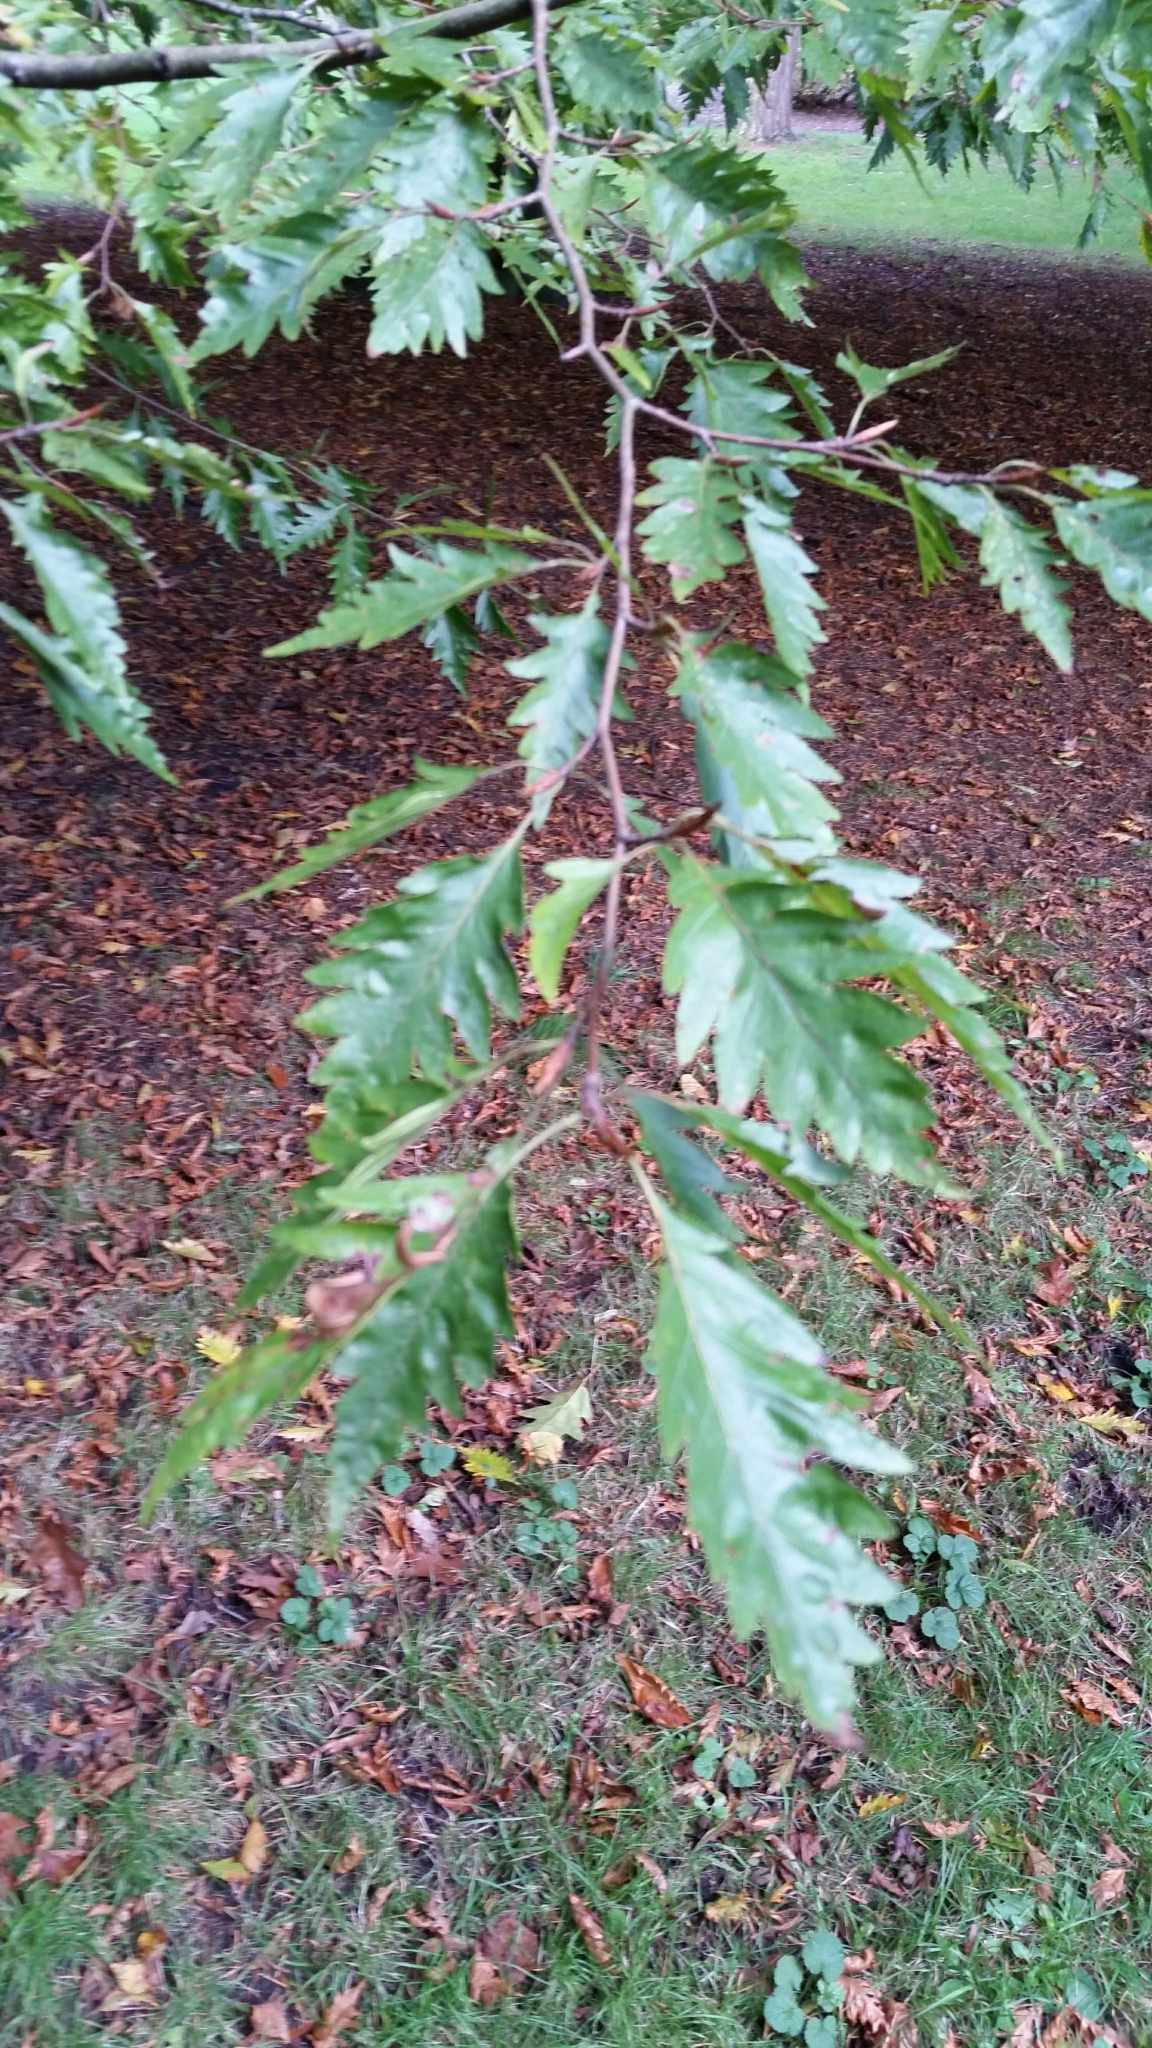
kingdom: Plantae
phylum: Tracheophyta
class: Magnoliopsida
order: Fagales
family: Fagaceae
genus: Fagus
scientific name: Fagus sylvatica
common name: Beech
